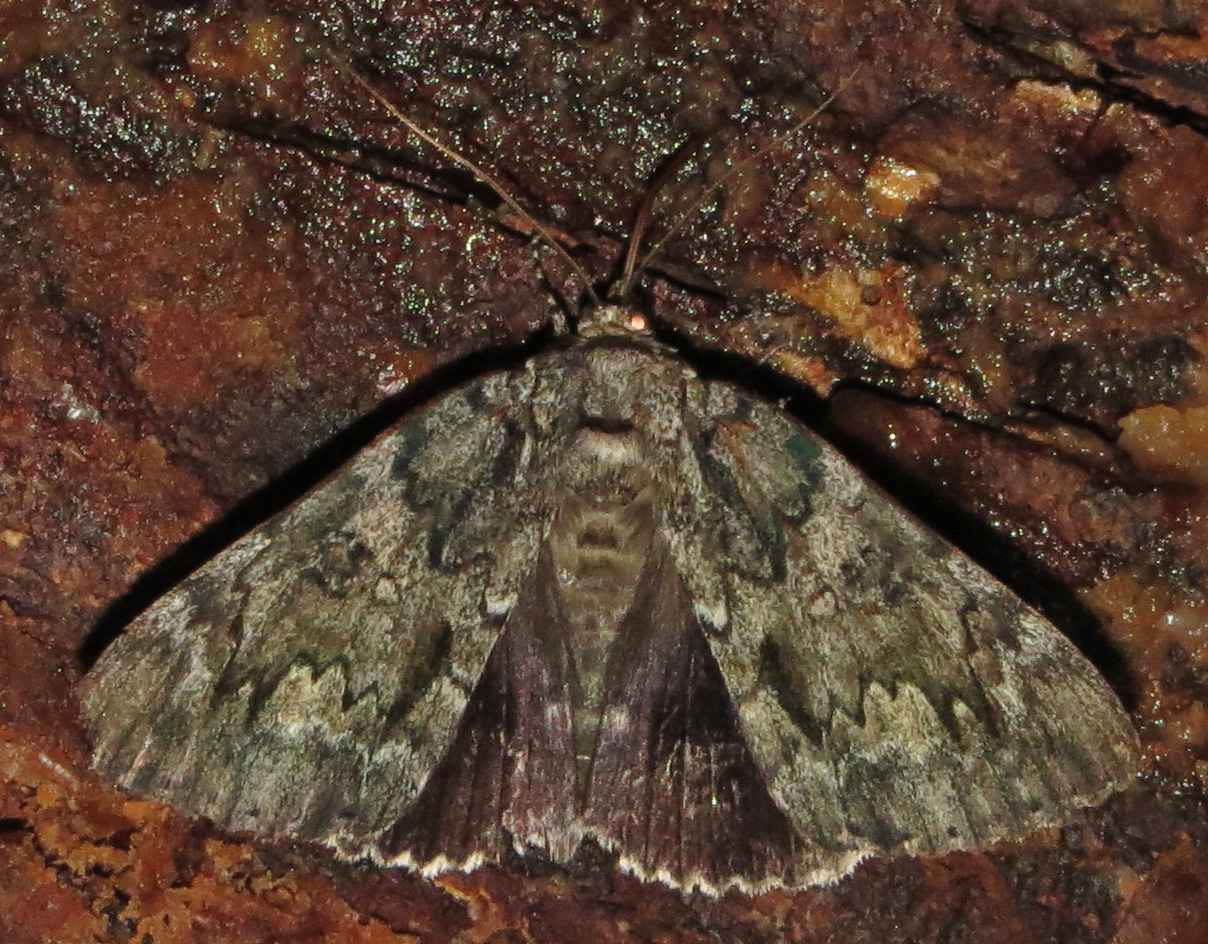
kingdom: Animalia
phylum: Arthropoda
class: Insecta
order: Lepidoptera
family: Erebidae
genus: Catocala
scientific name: Catocala lacrymosa
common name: Tearful underwing
